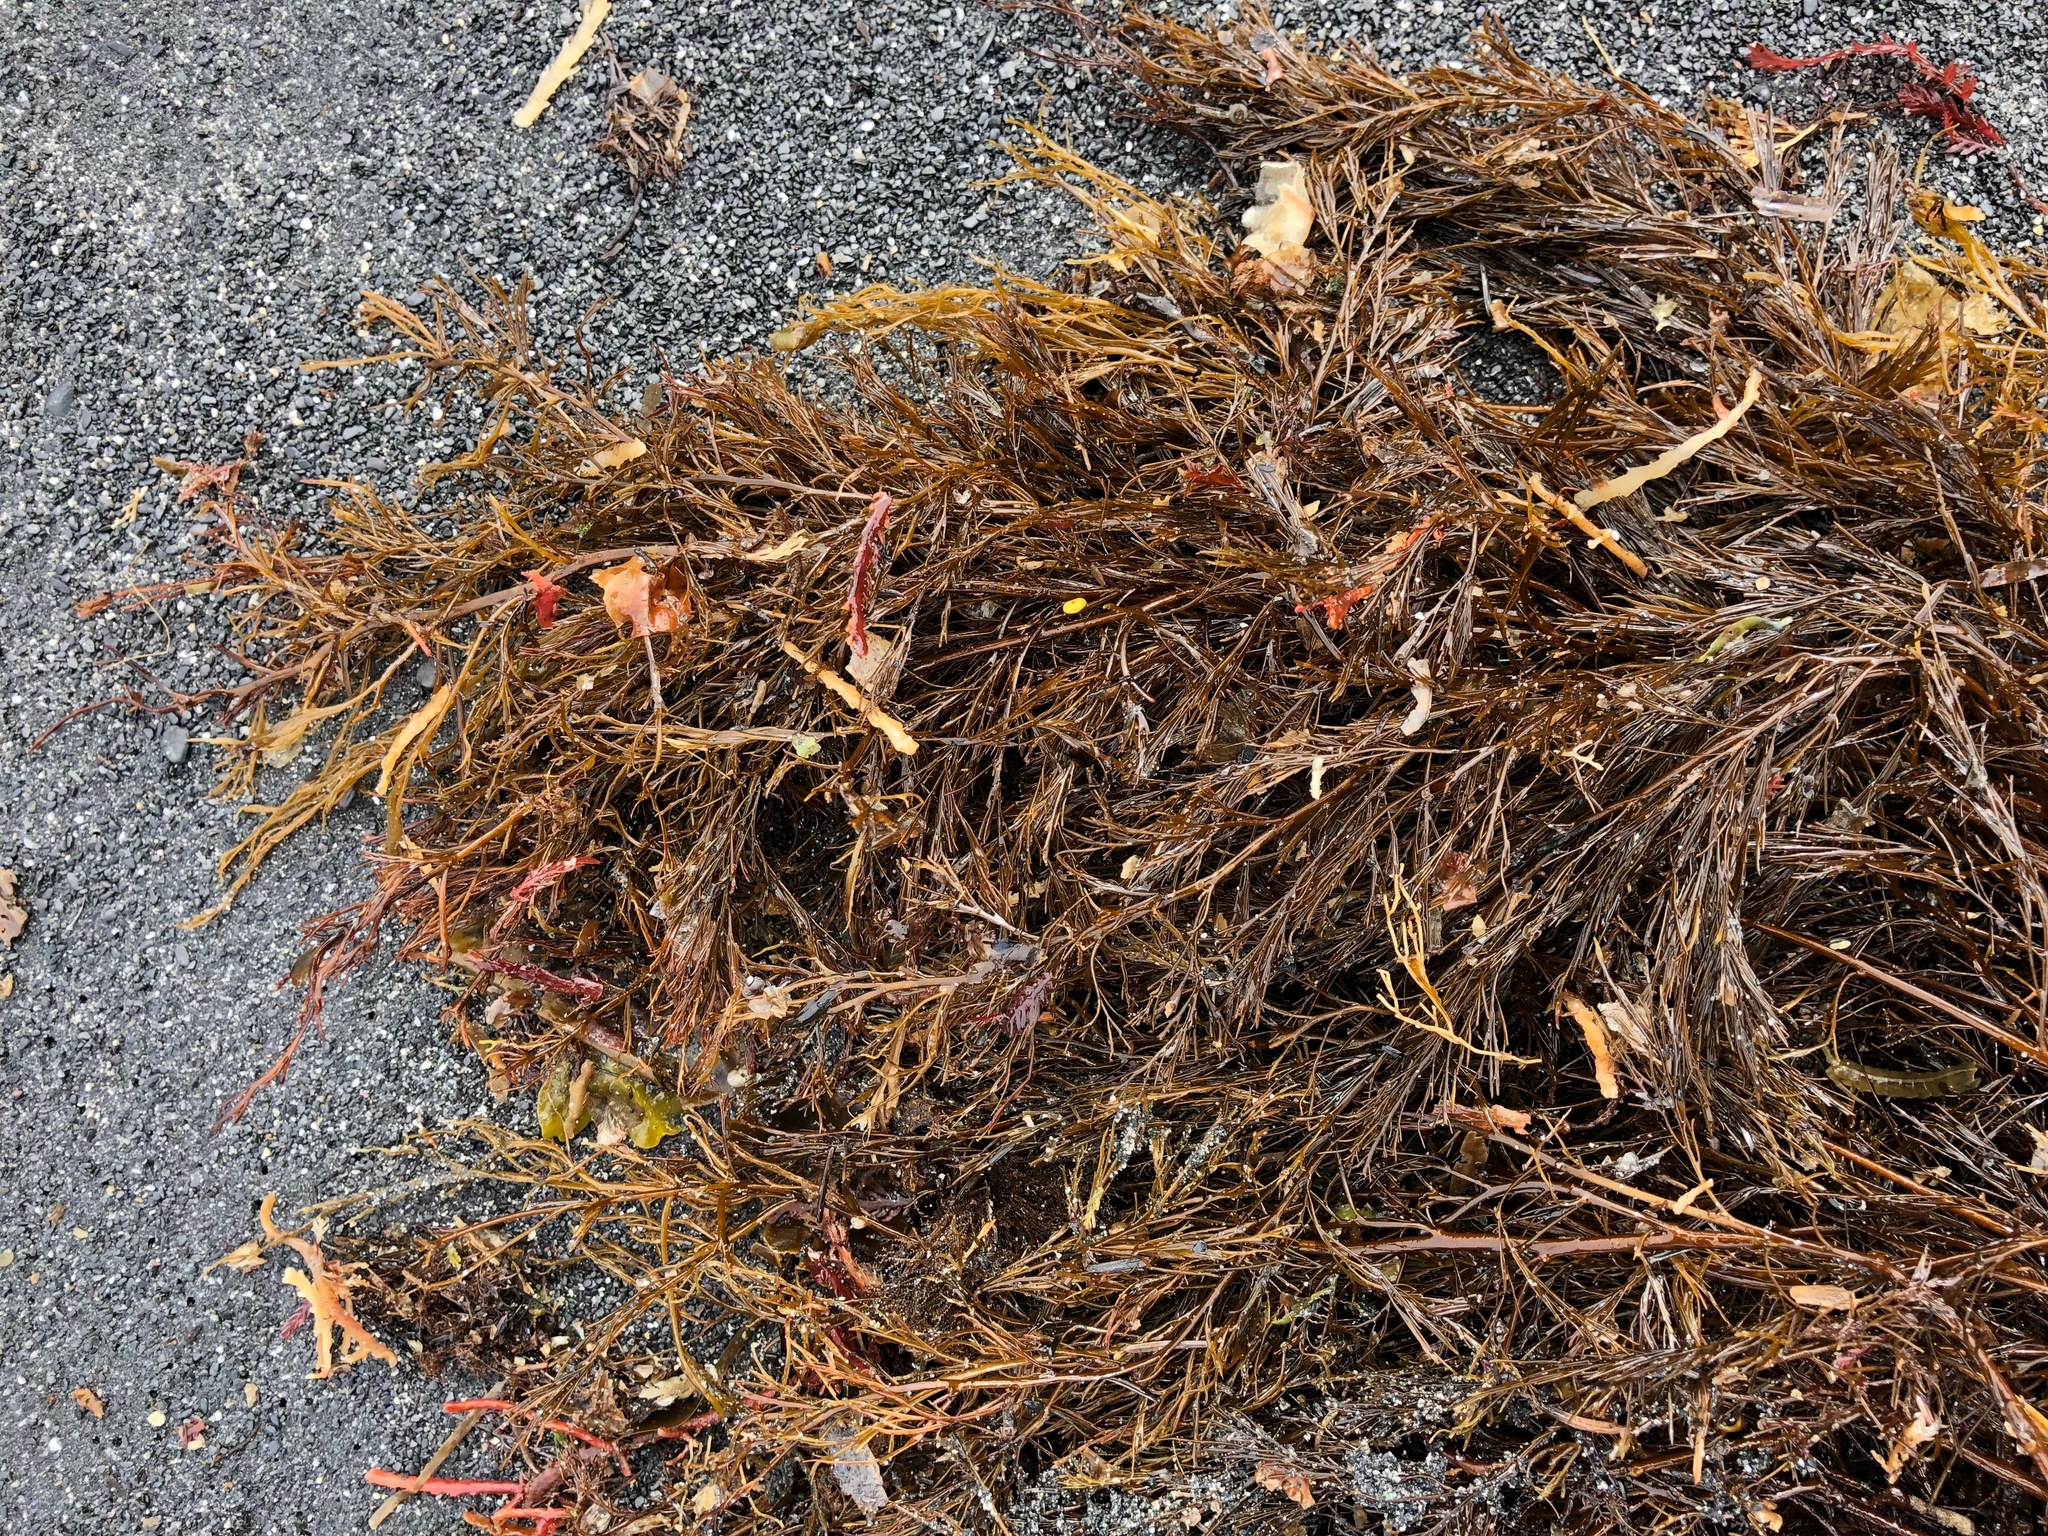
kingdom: Chromista
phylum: Ochrophyta
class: Phaeophyceae
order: Desmarestiales
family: Desmarestiaceae
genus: Desmarestia
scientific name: Desmarestia aculeata
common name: Witch's hair
